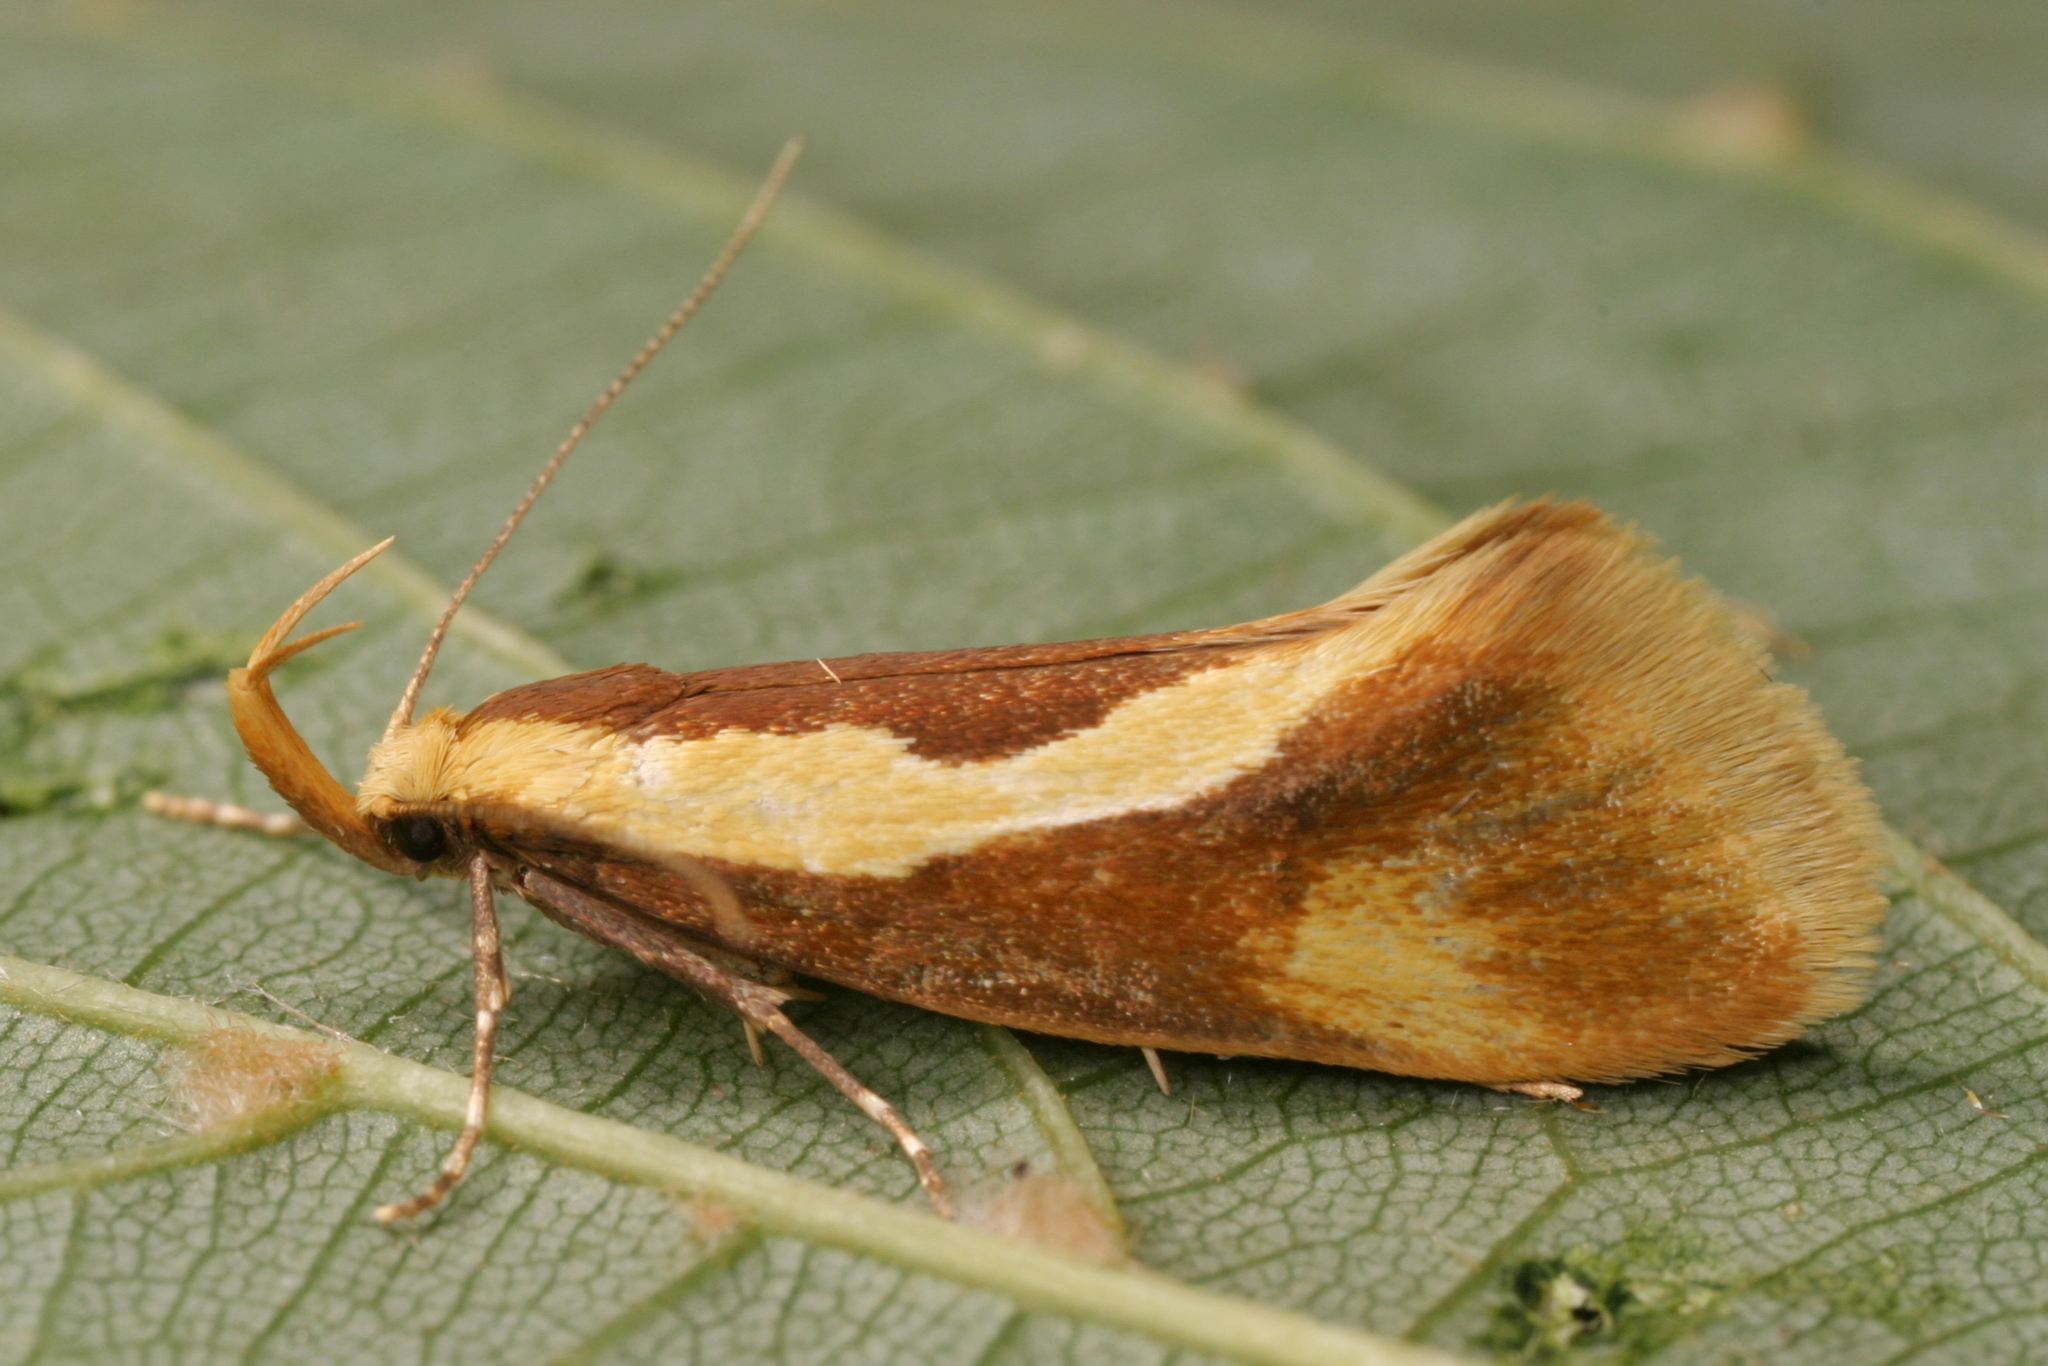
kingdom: Animalia
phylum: Arthropoda
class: Insecta
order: Lepidoptera
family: Oecophoridae
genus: Harpella
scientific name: Harpella forficella
